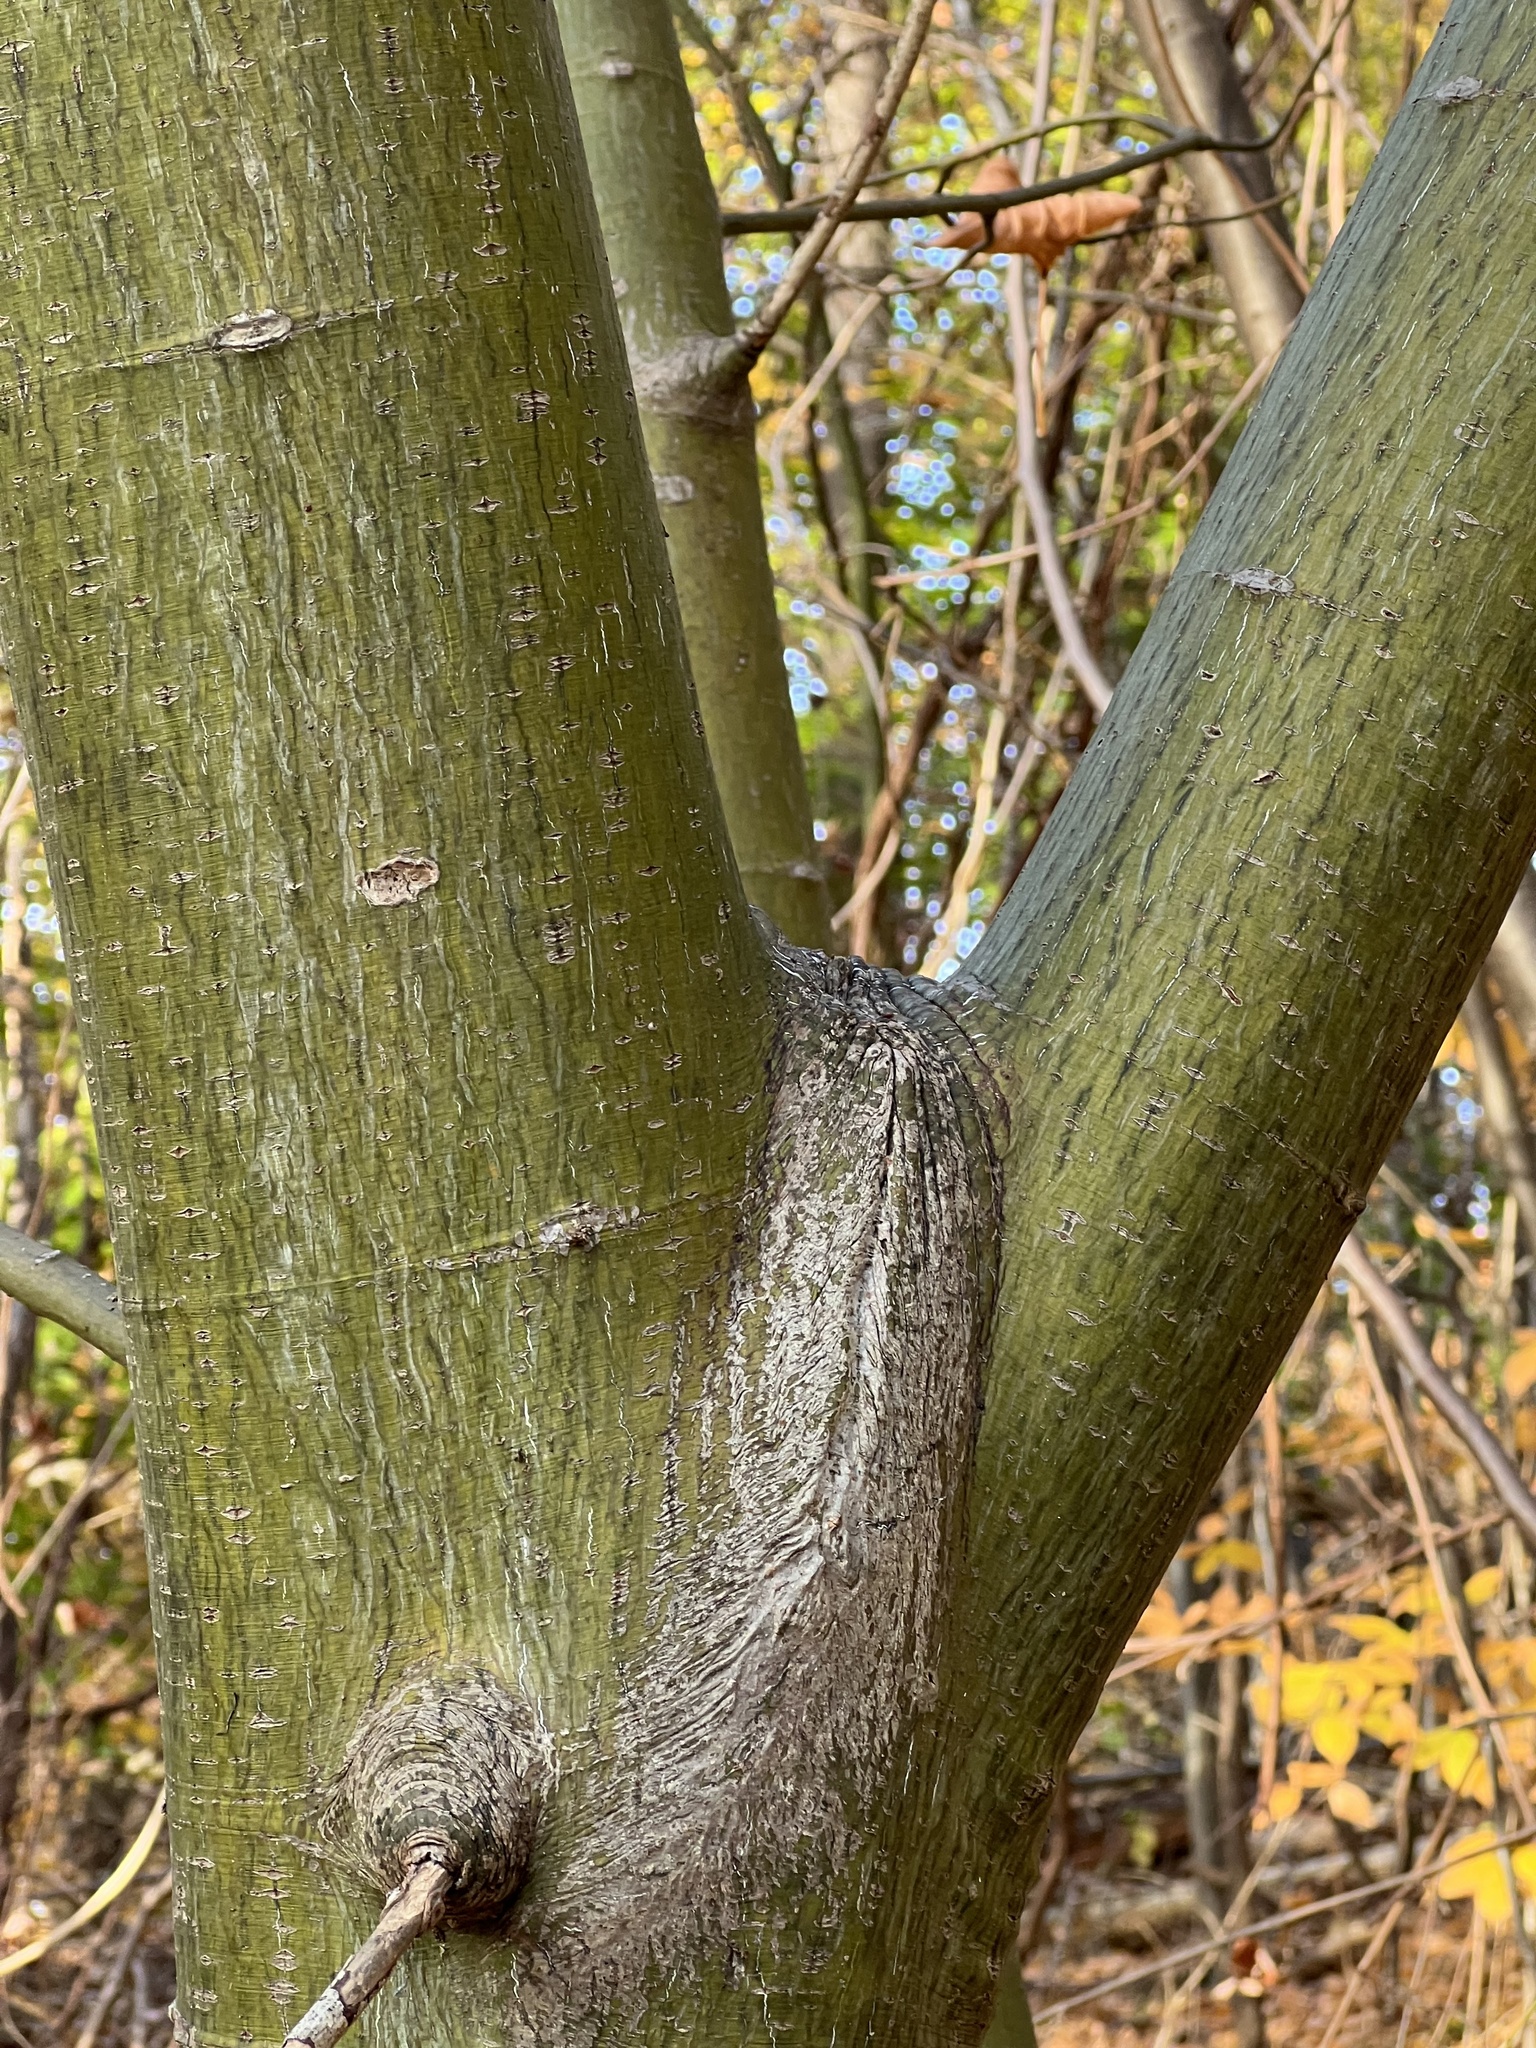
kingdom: Plantae
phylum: Tracheophyta
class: Magnoliopsida
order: Sapindales
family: Sapindaceae
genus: Acer
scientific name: Acer pensylvanicum
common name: Moosewood
